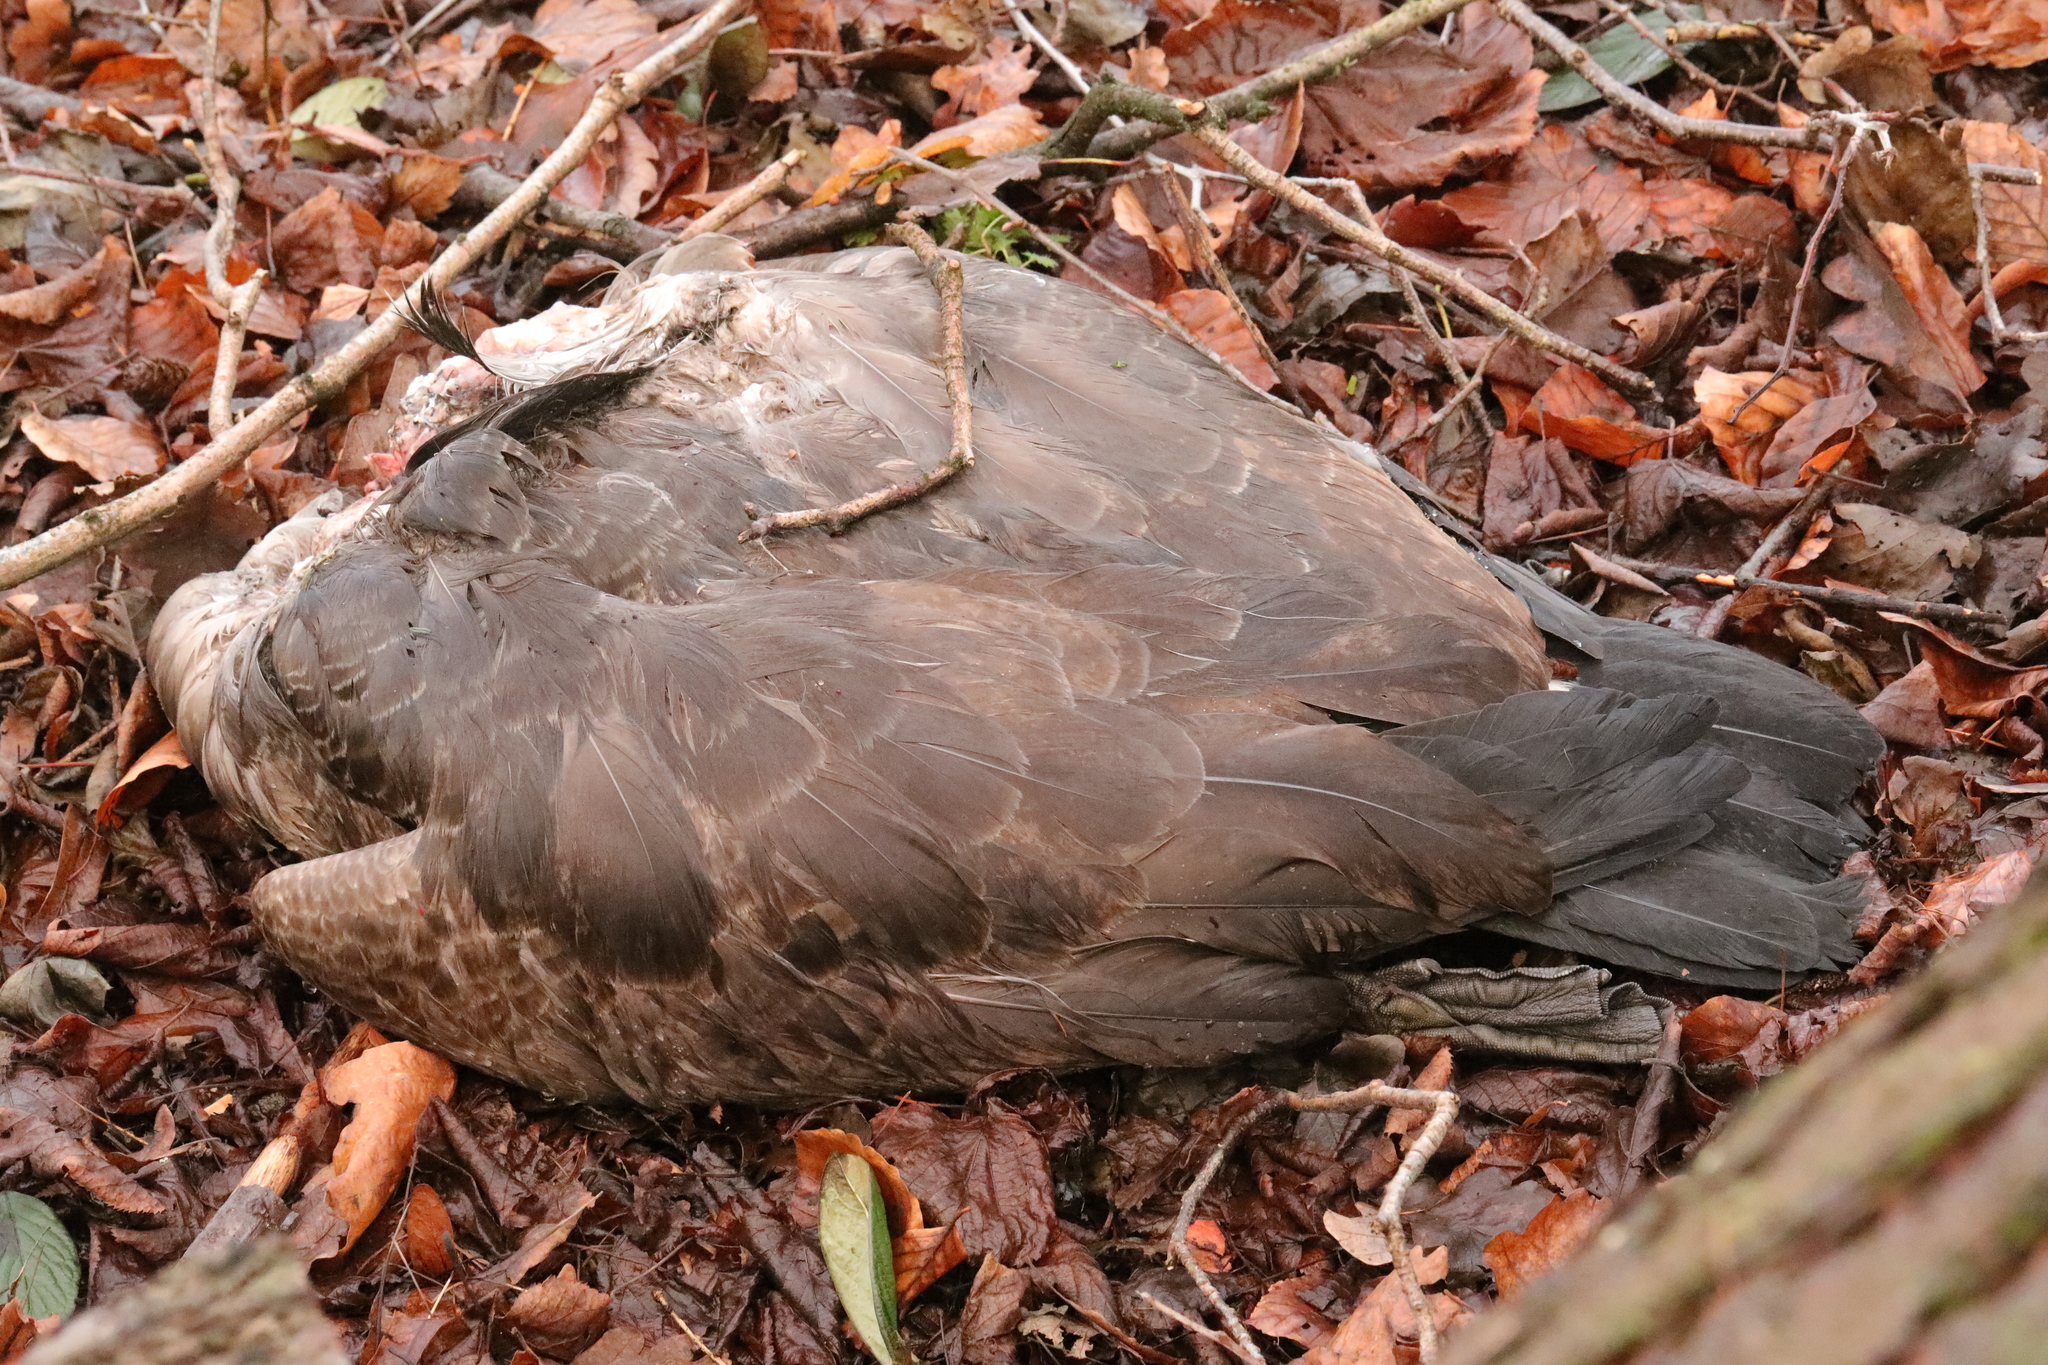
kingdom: Animalia
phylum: Chordata
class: Aves
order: Anseriformes
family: Anatidae
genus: Branta
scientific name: Branta canadensis
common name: Canada goose
